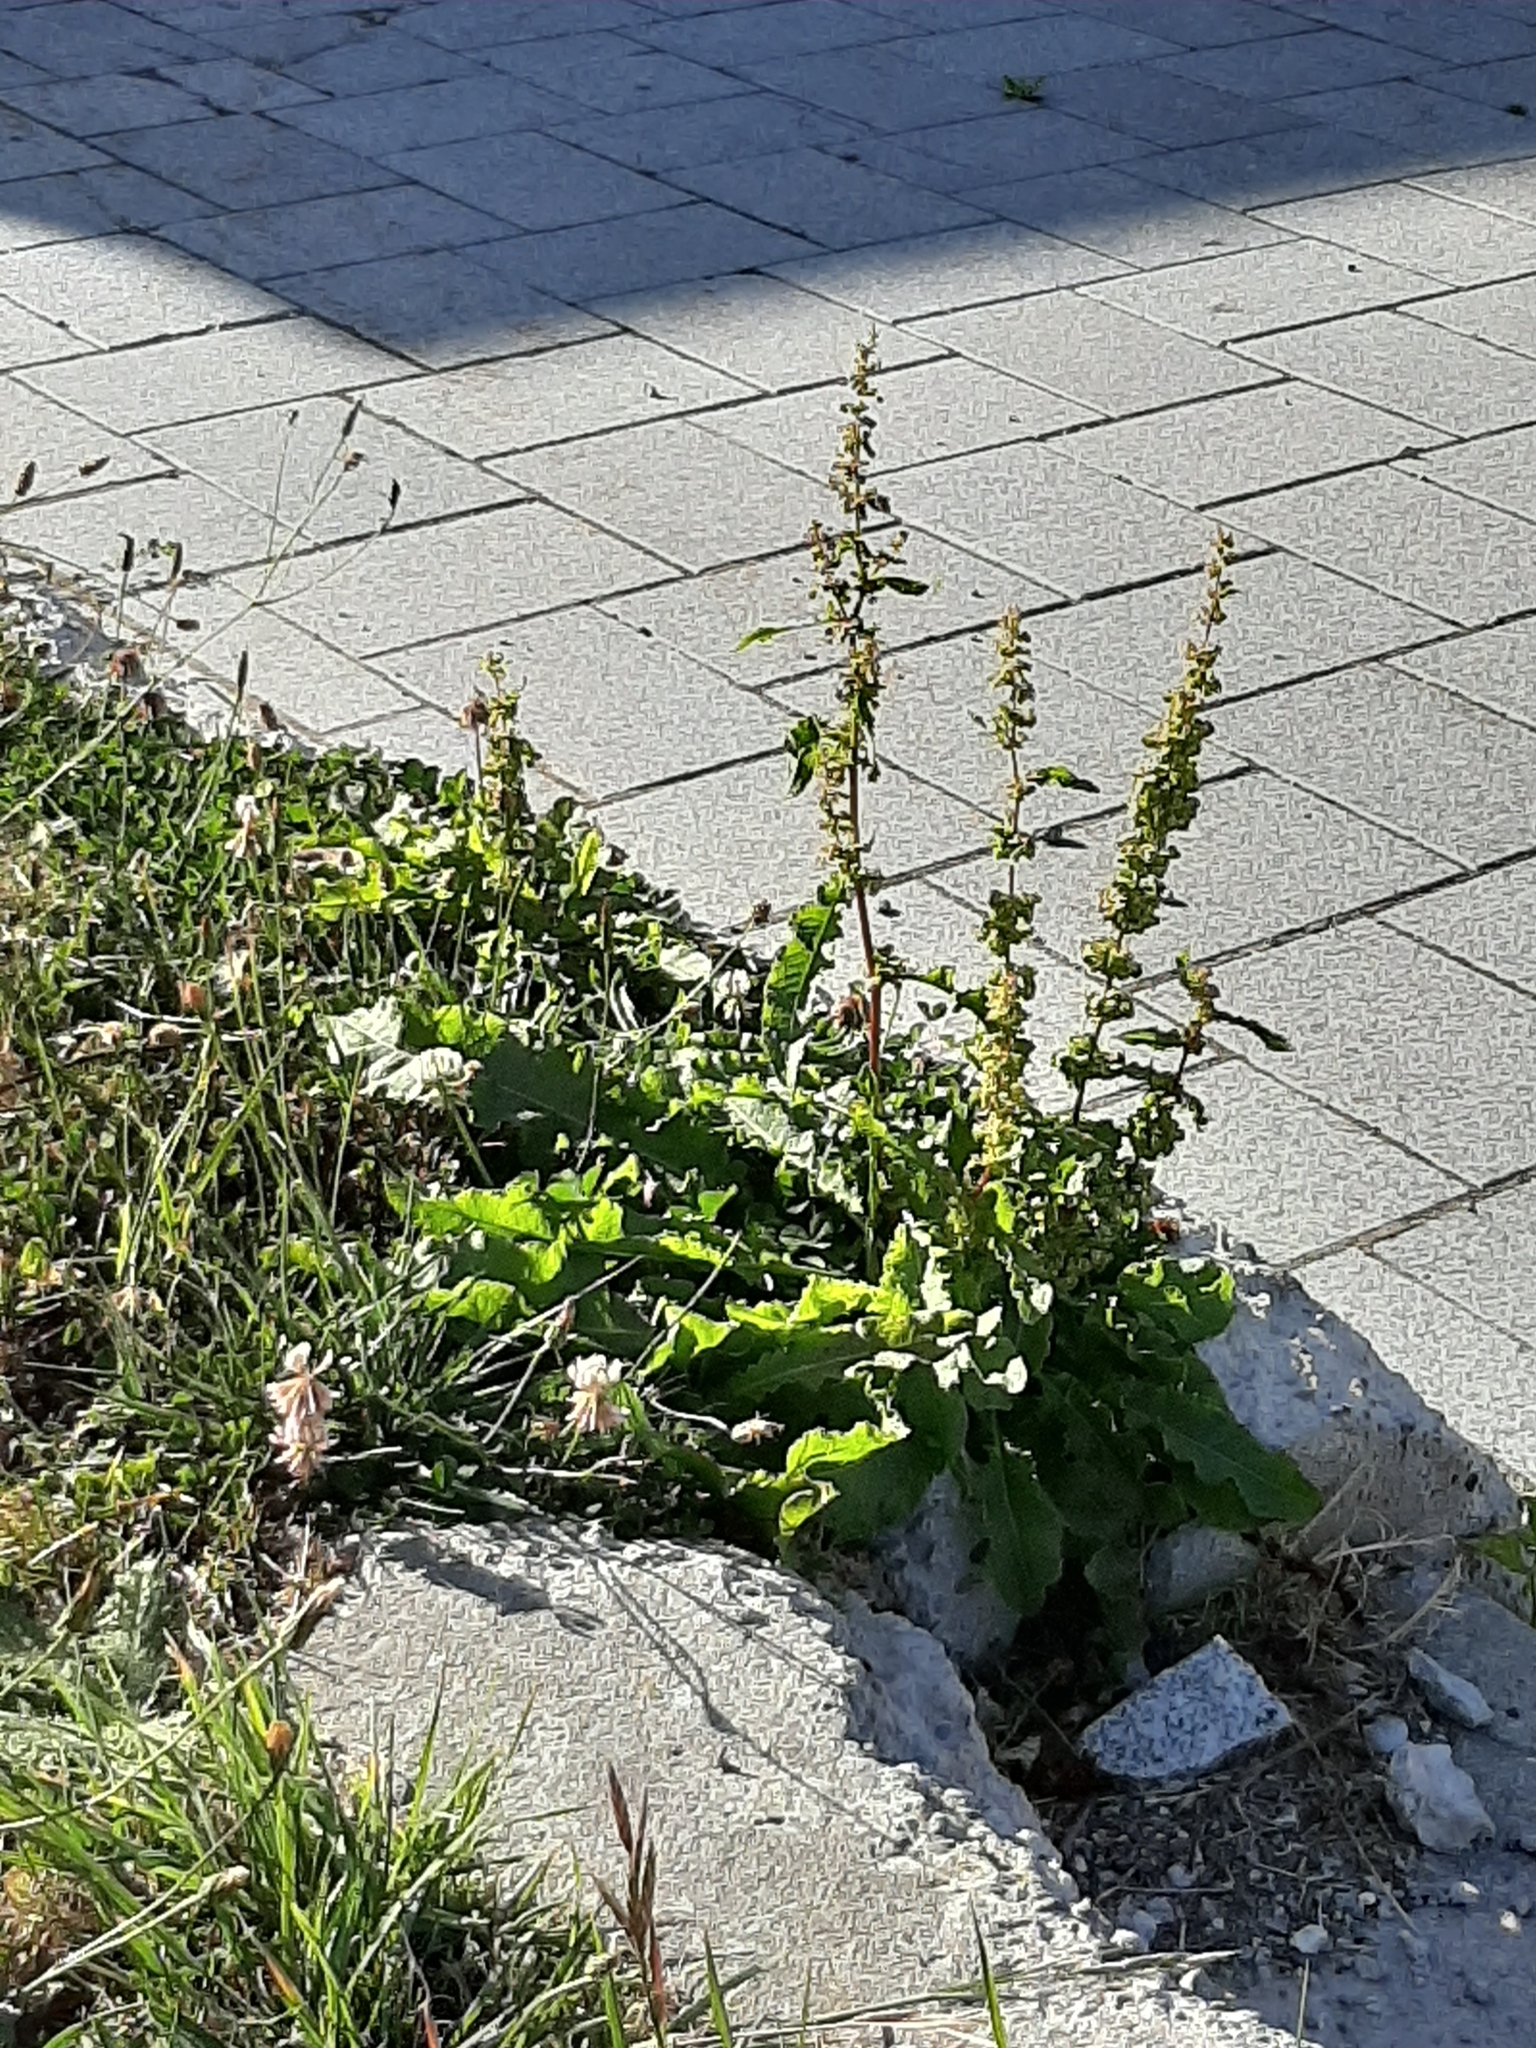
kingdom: Plantae
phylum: Tracheophyta
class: Magnoliopsida
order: Caryophyllales
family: Polygonaceae
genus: Rumex
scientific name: Rumex crispus
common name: Curled dock
